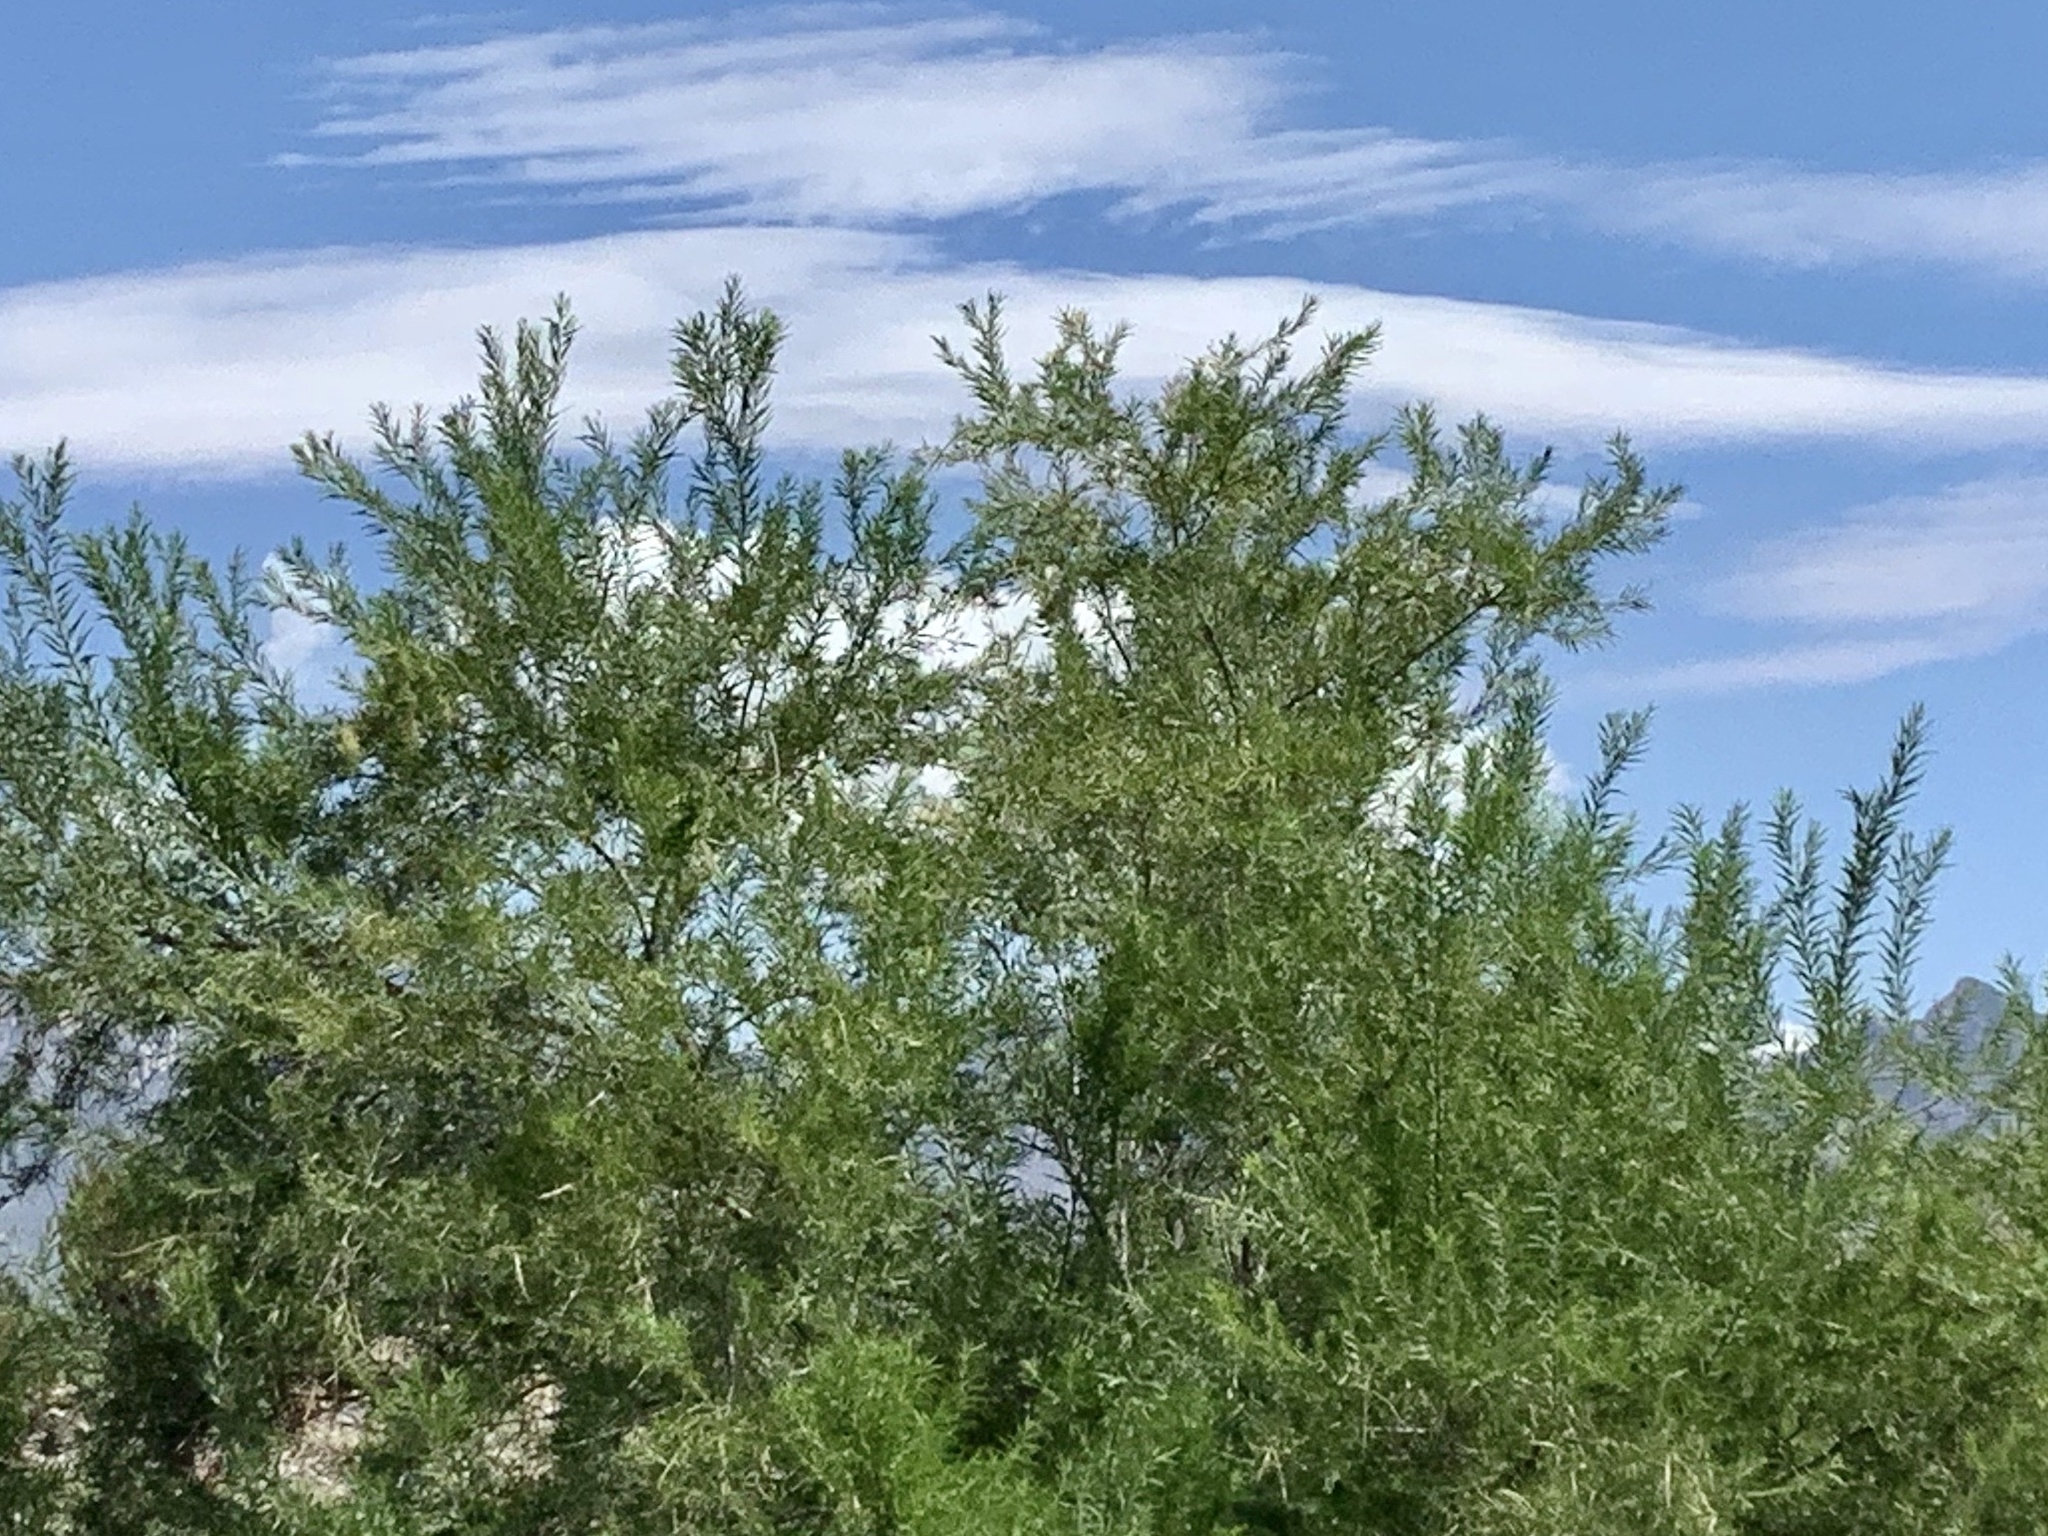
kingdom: Plantae
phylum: Tracheophyta
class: Magnoliopsida
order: Lamiales
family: Bignoniaceae
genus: Chilopsis
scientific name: Chilopsis linearis
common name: Desert-willow
